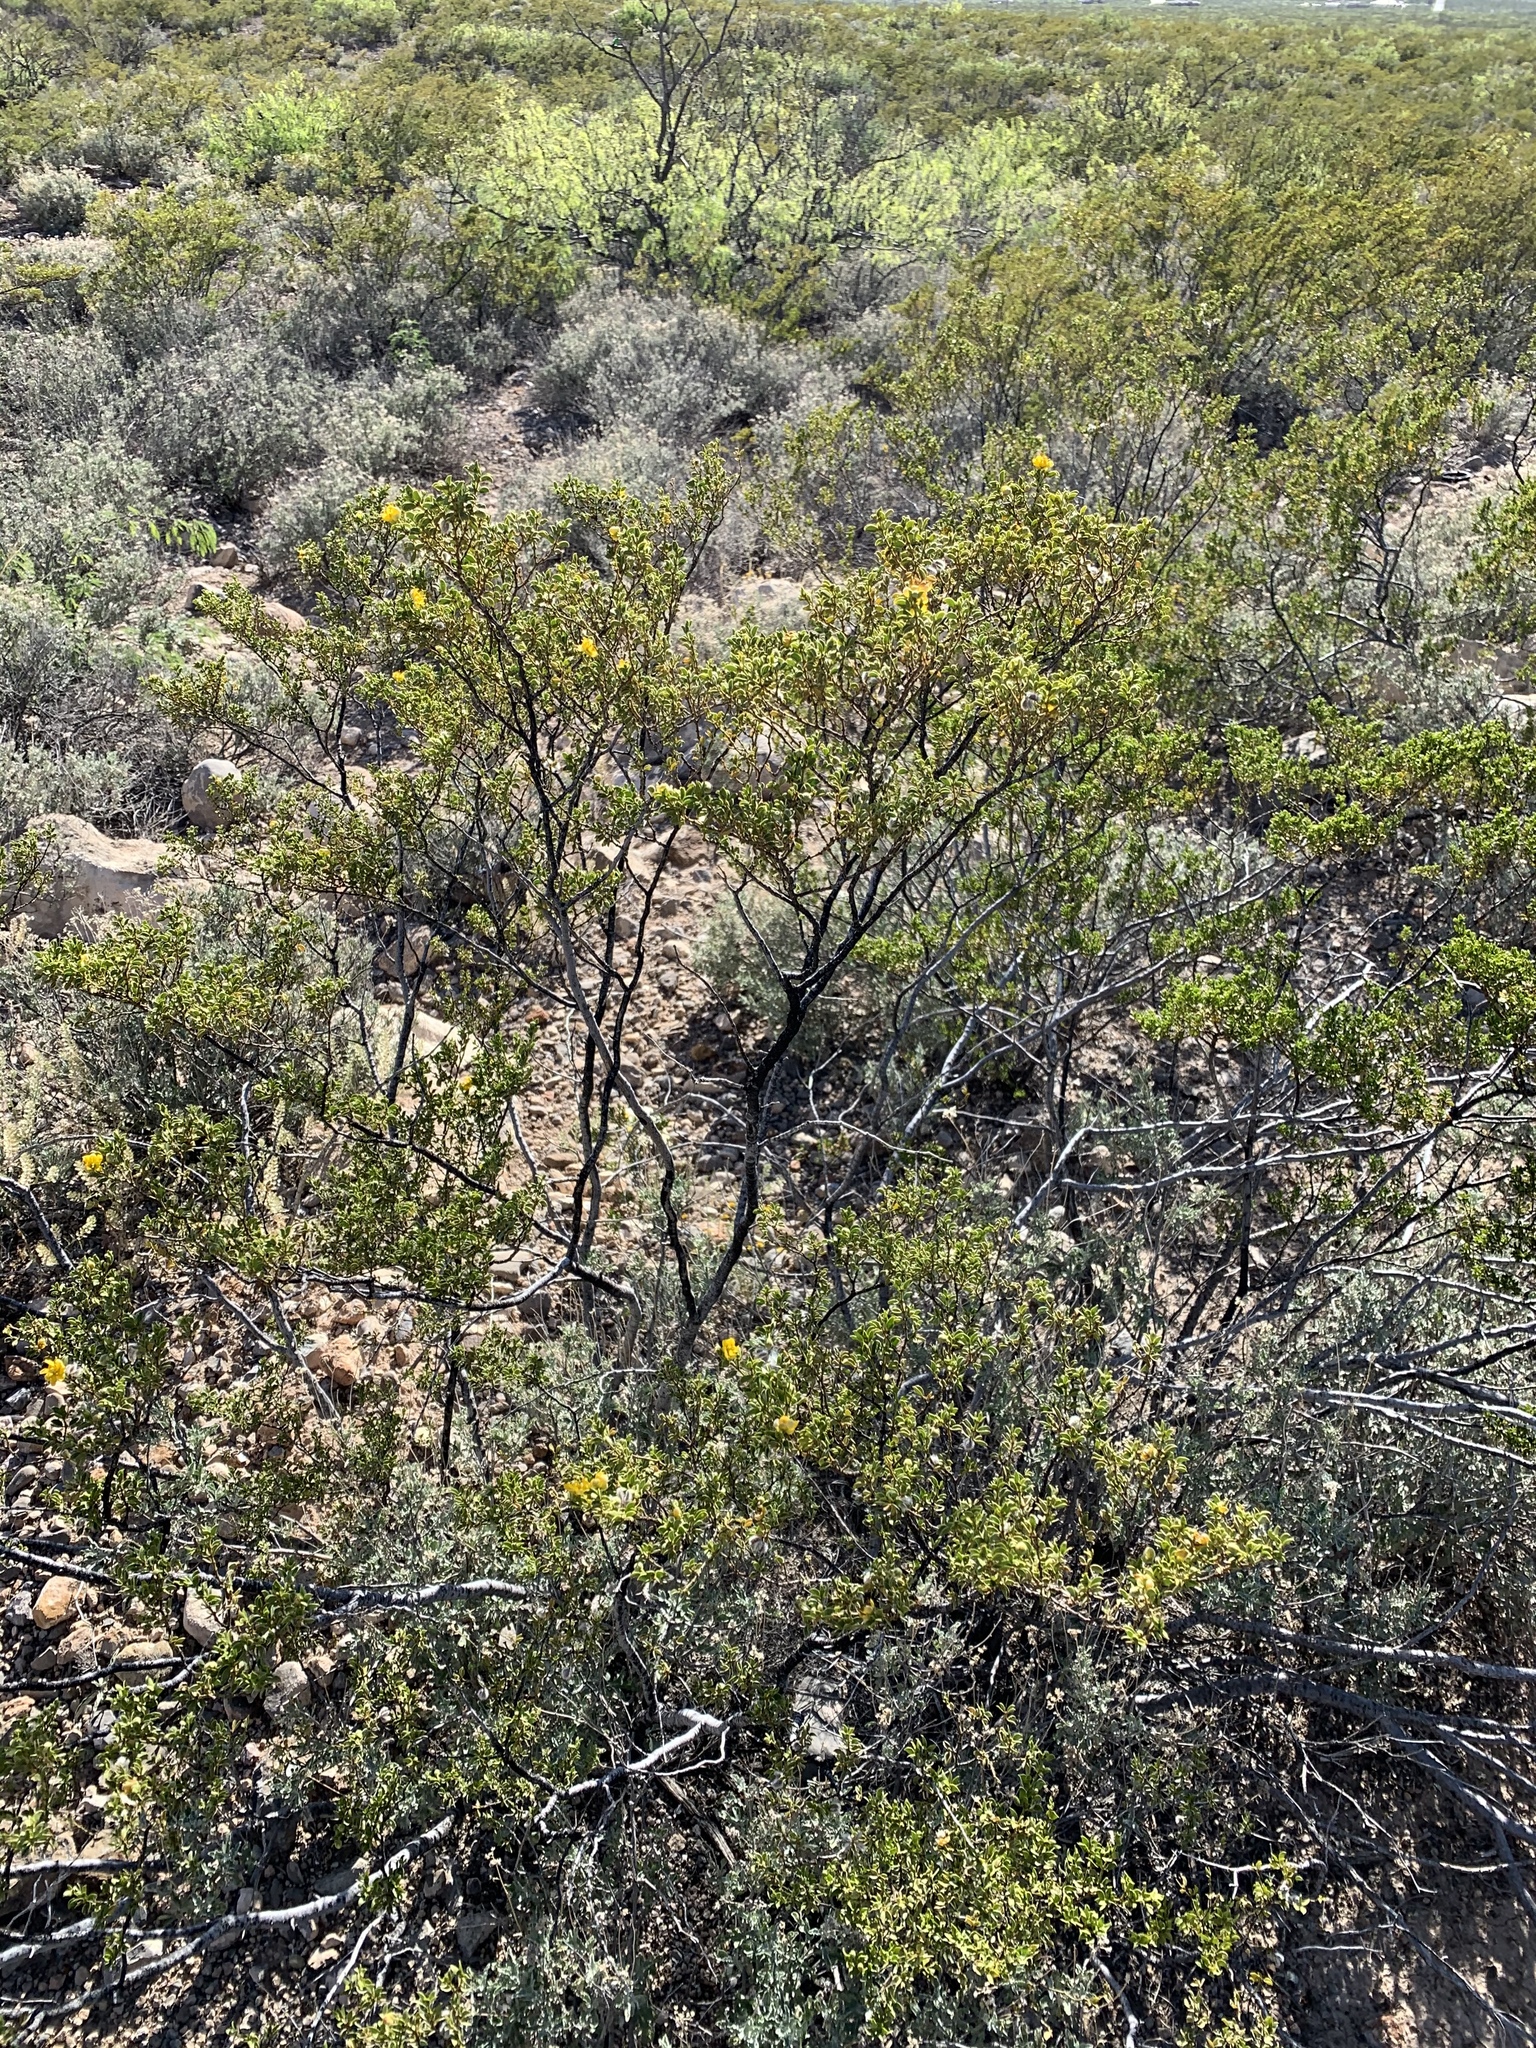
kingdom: Plantae
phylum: Tracheophyta
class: Magnoliopsida
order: Zygophyllales
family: Zygophyllaceae
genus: Larrea
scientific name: Larrea tridentata
